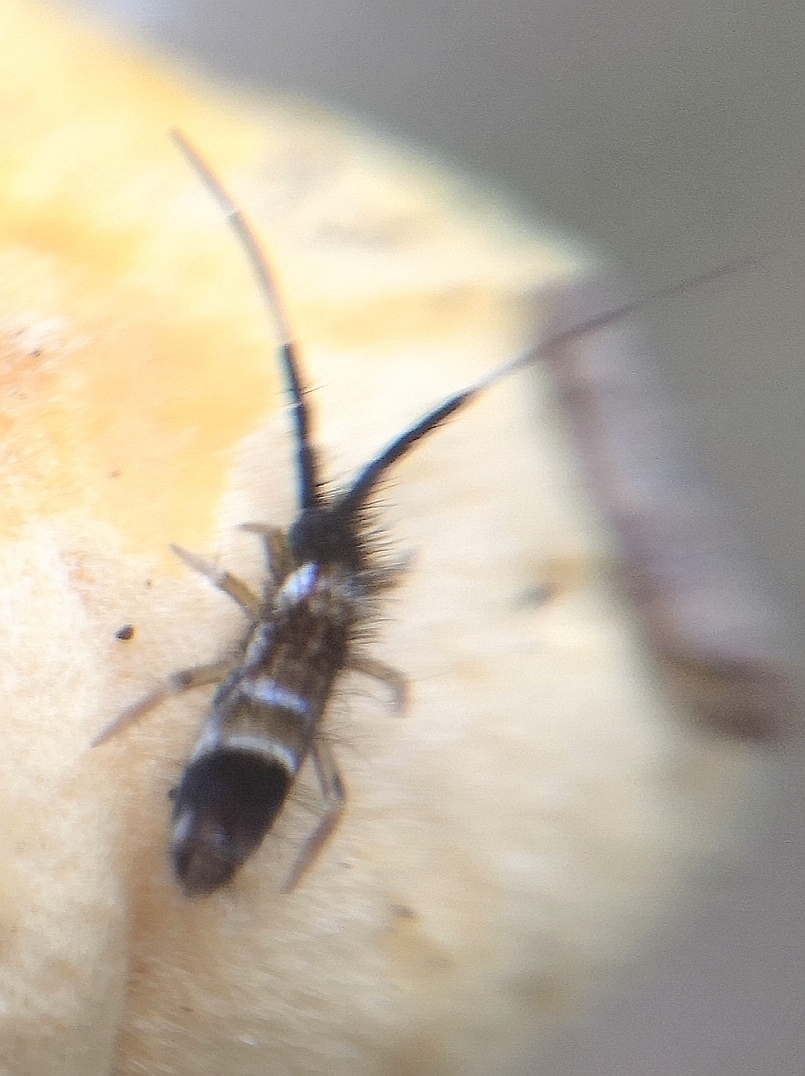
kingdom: Animalia
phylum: Arthropoda
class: Collembola
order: Entomobryomorpha
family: Entomobryidae
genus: Entomobrya
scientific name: Entomobrya nivalis
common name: Cosmopolitan springtail
